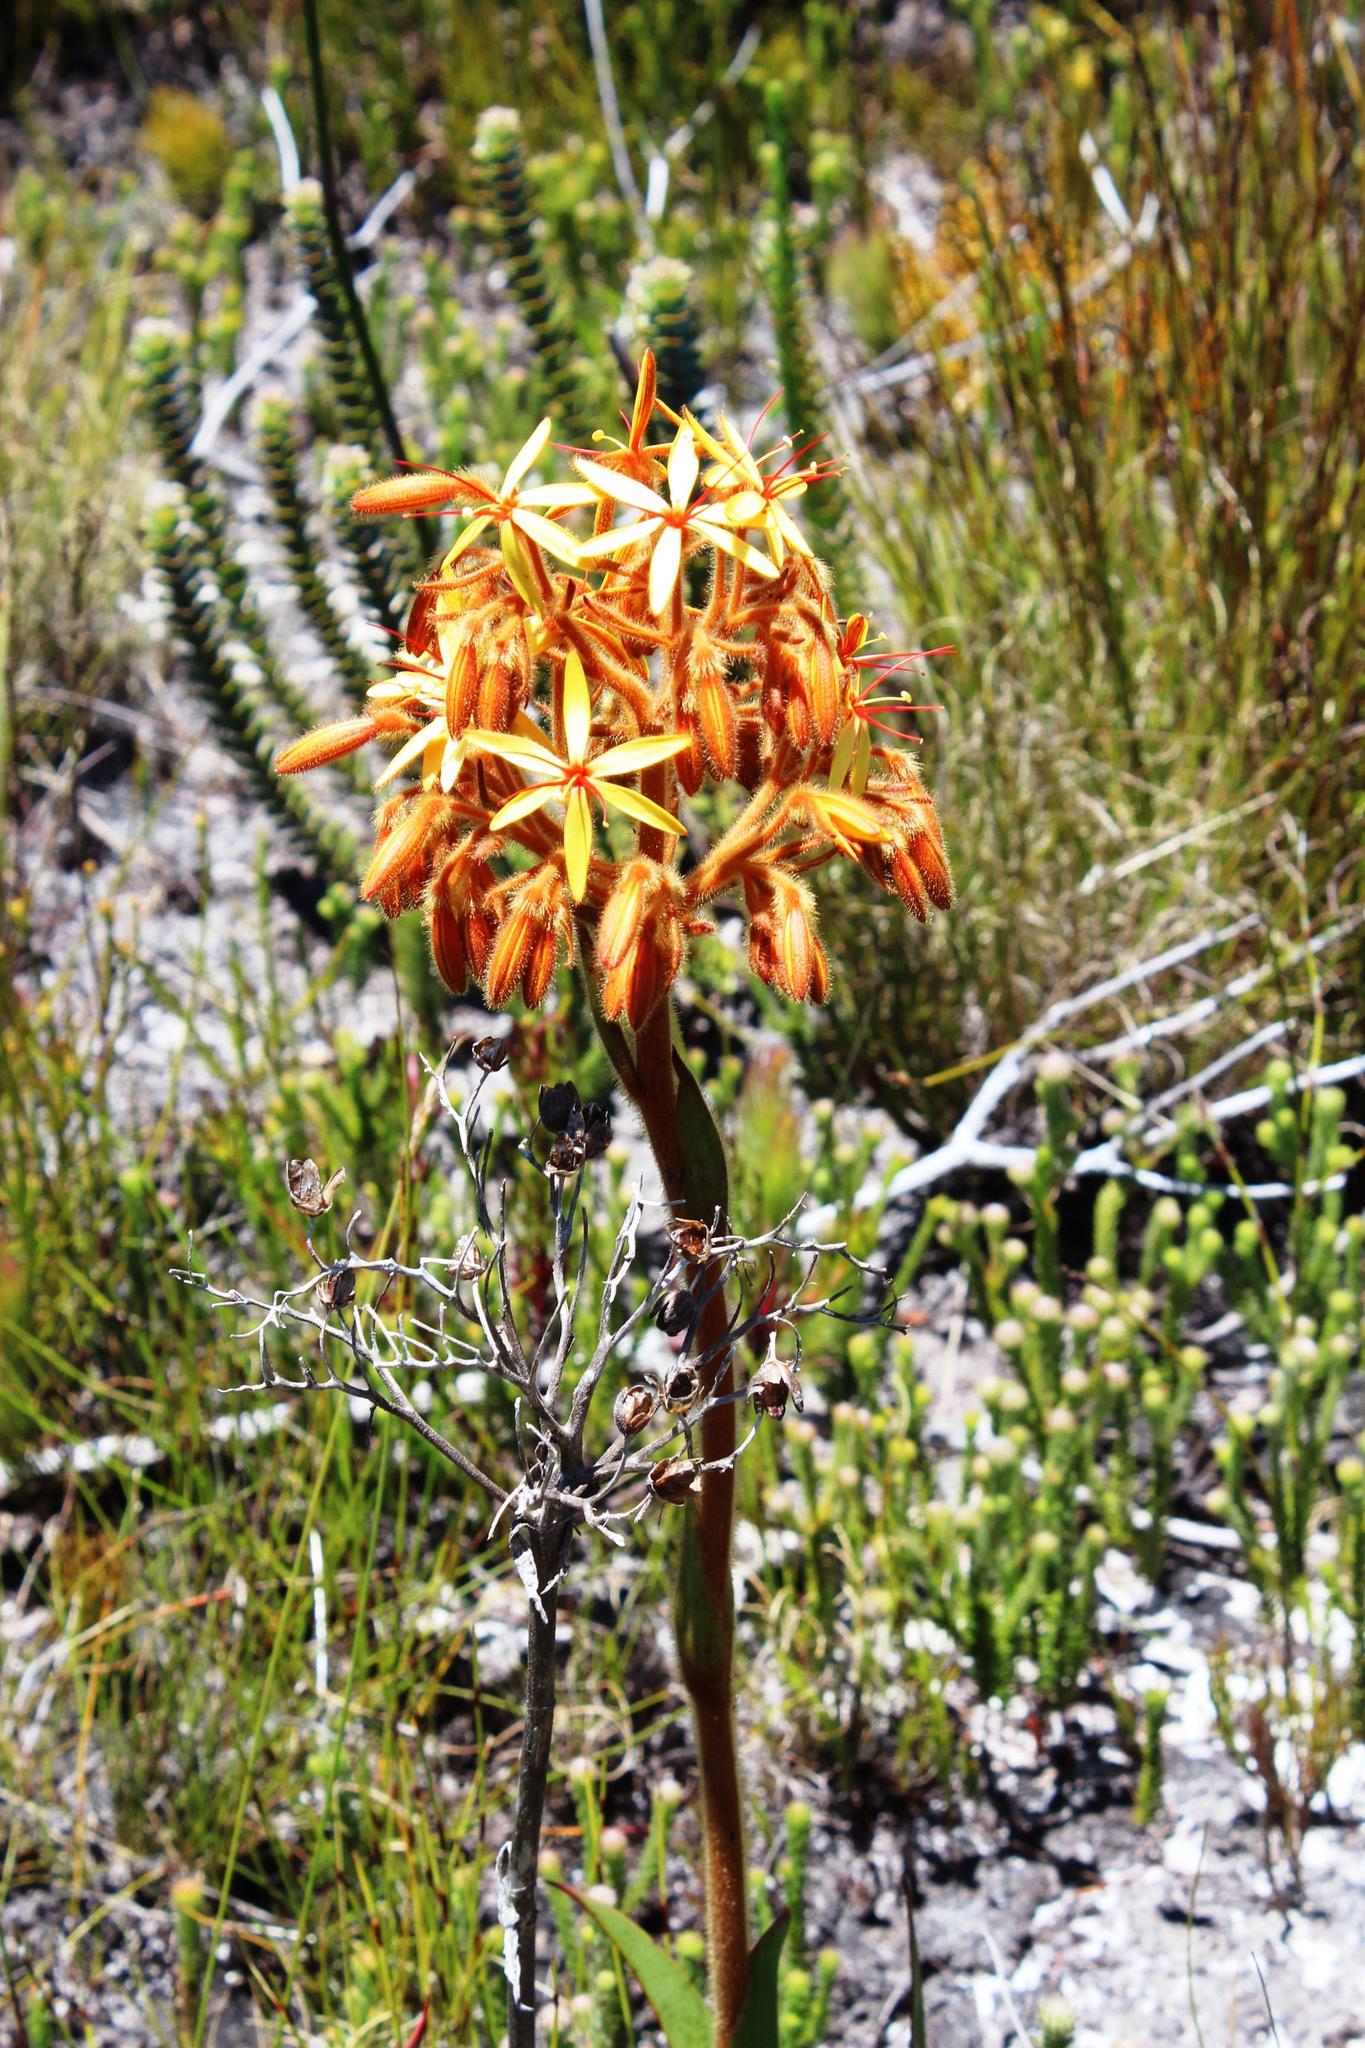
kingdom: Plantae
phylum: Tracheophyta
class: Liliopsida
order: Commelinales
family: Haemodoraceae
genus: Dilatris
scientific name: Dilatris viscosa
